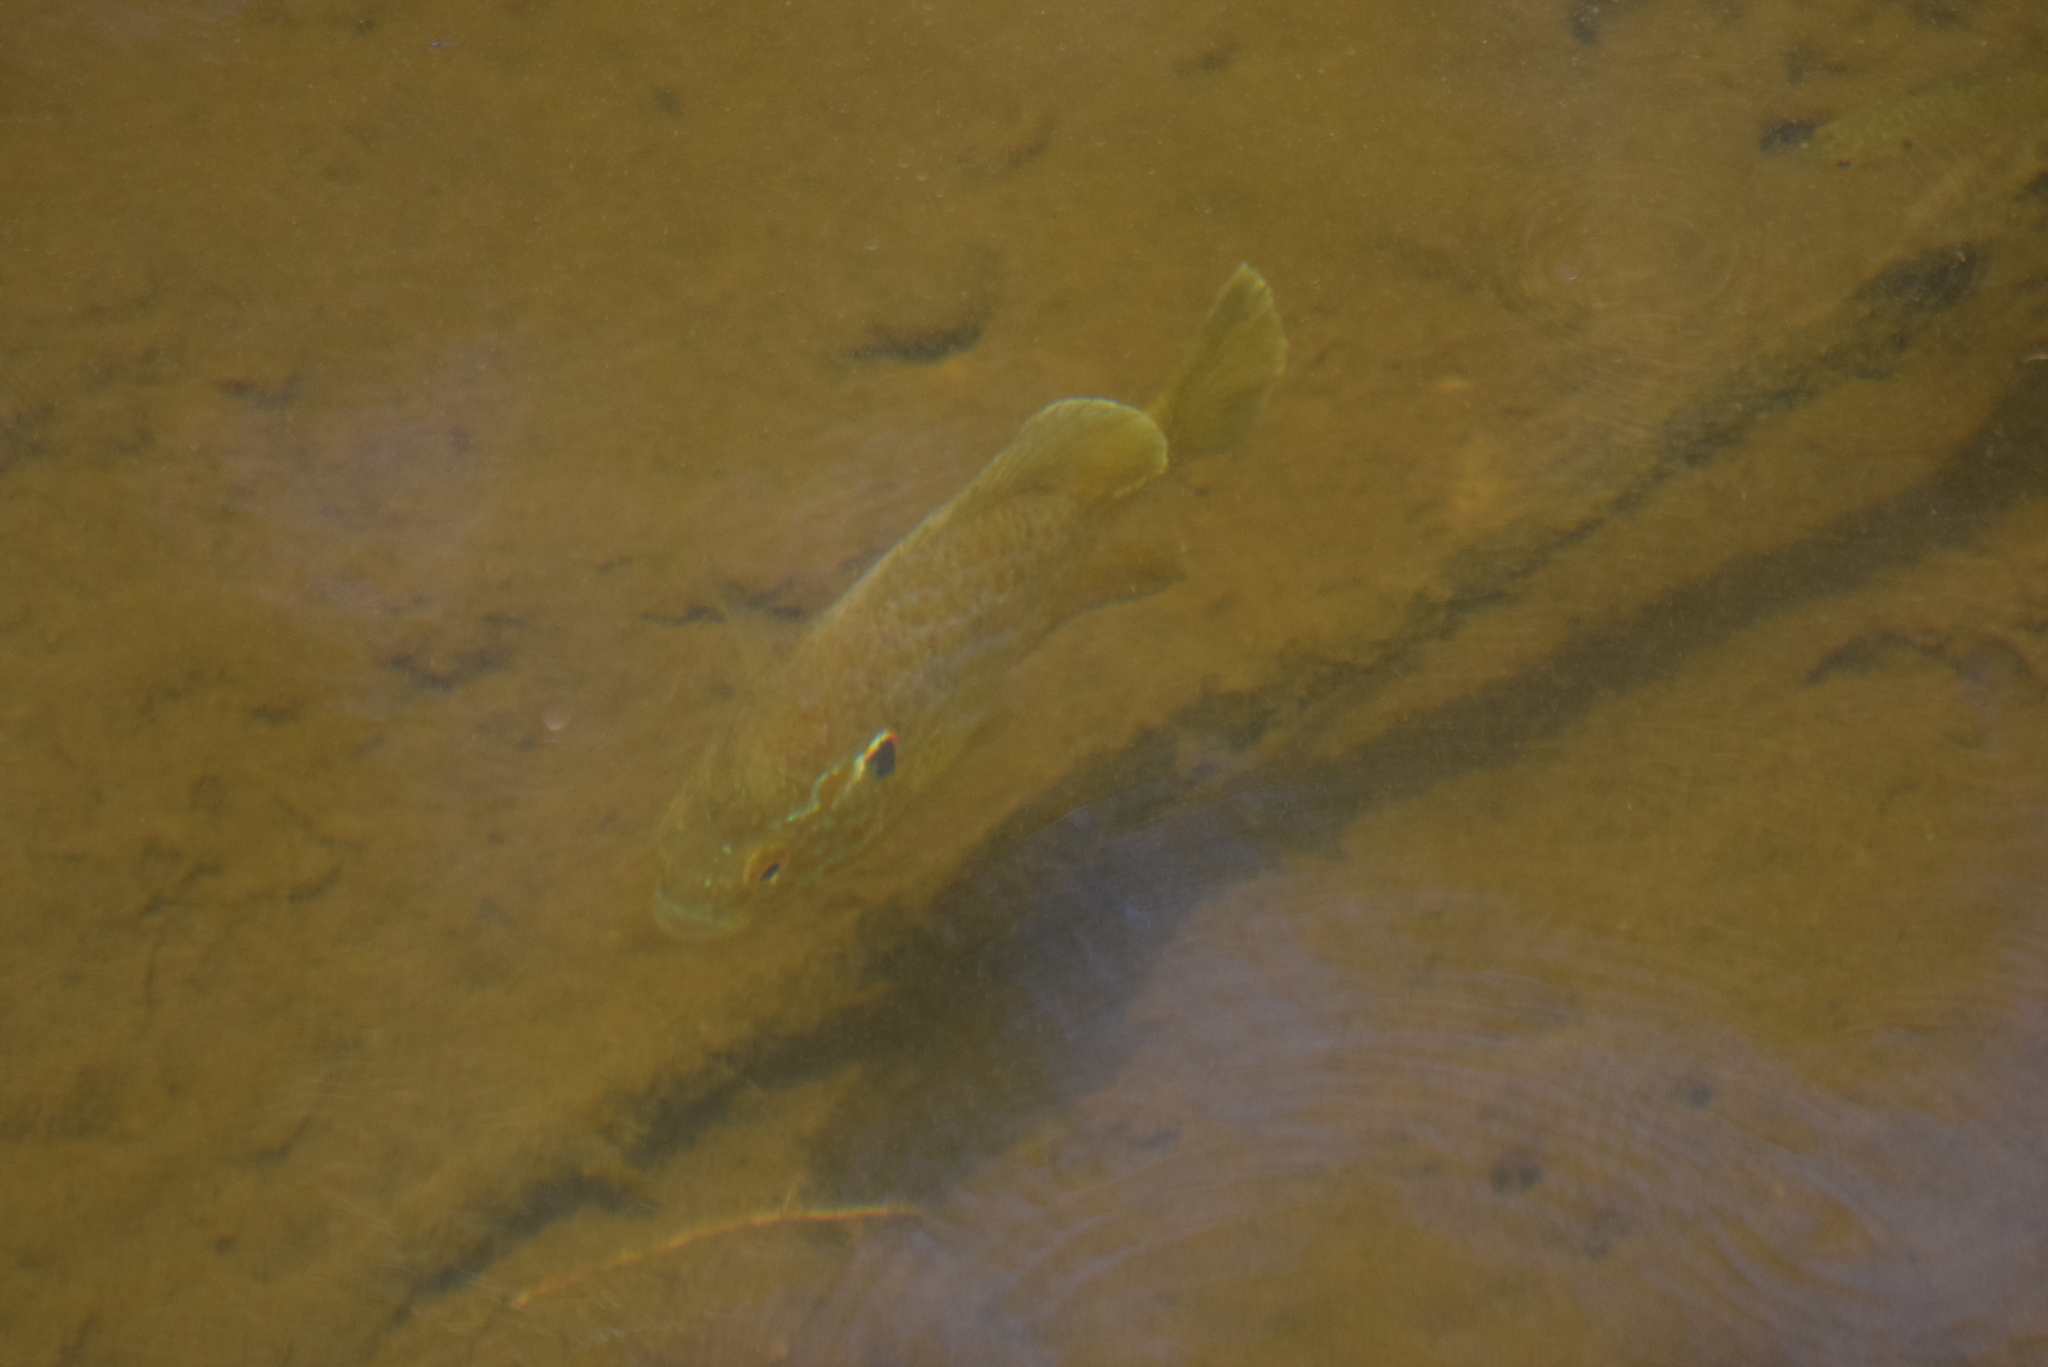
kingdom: Animalia
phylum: Chordata
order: Perciformes
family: Centrarchidae
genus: Lepomis
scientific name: Lepomis gibbosus
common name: Pumpkinseed
